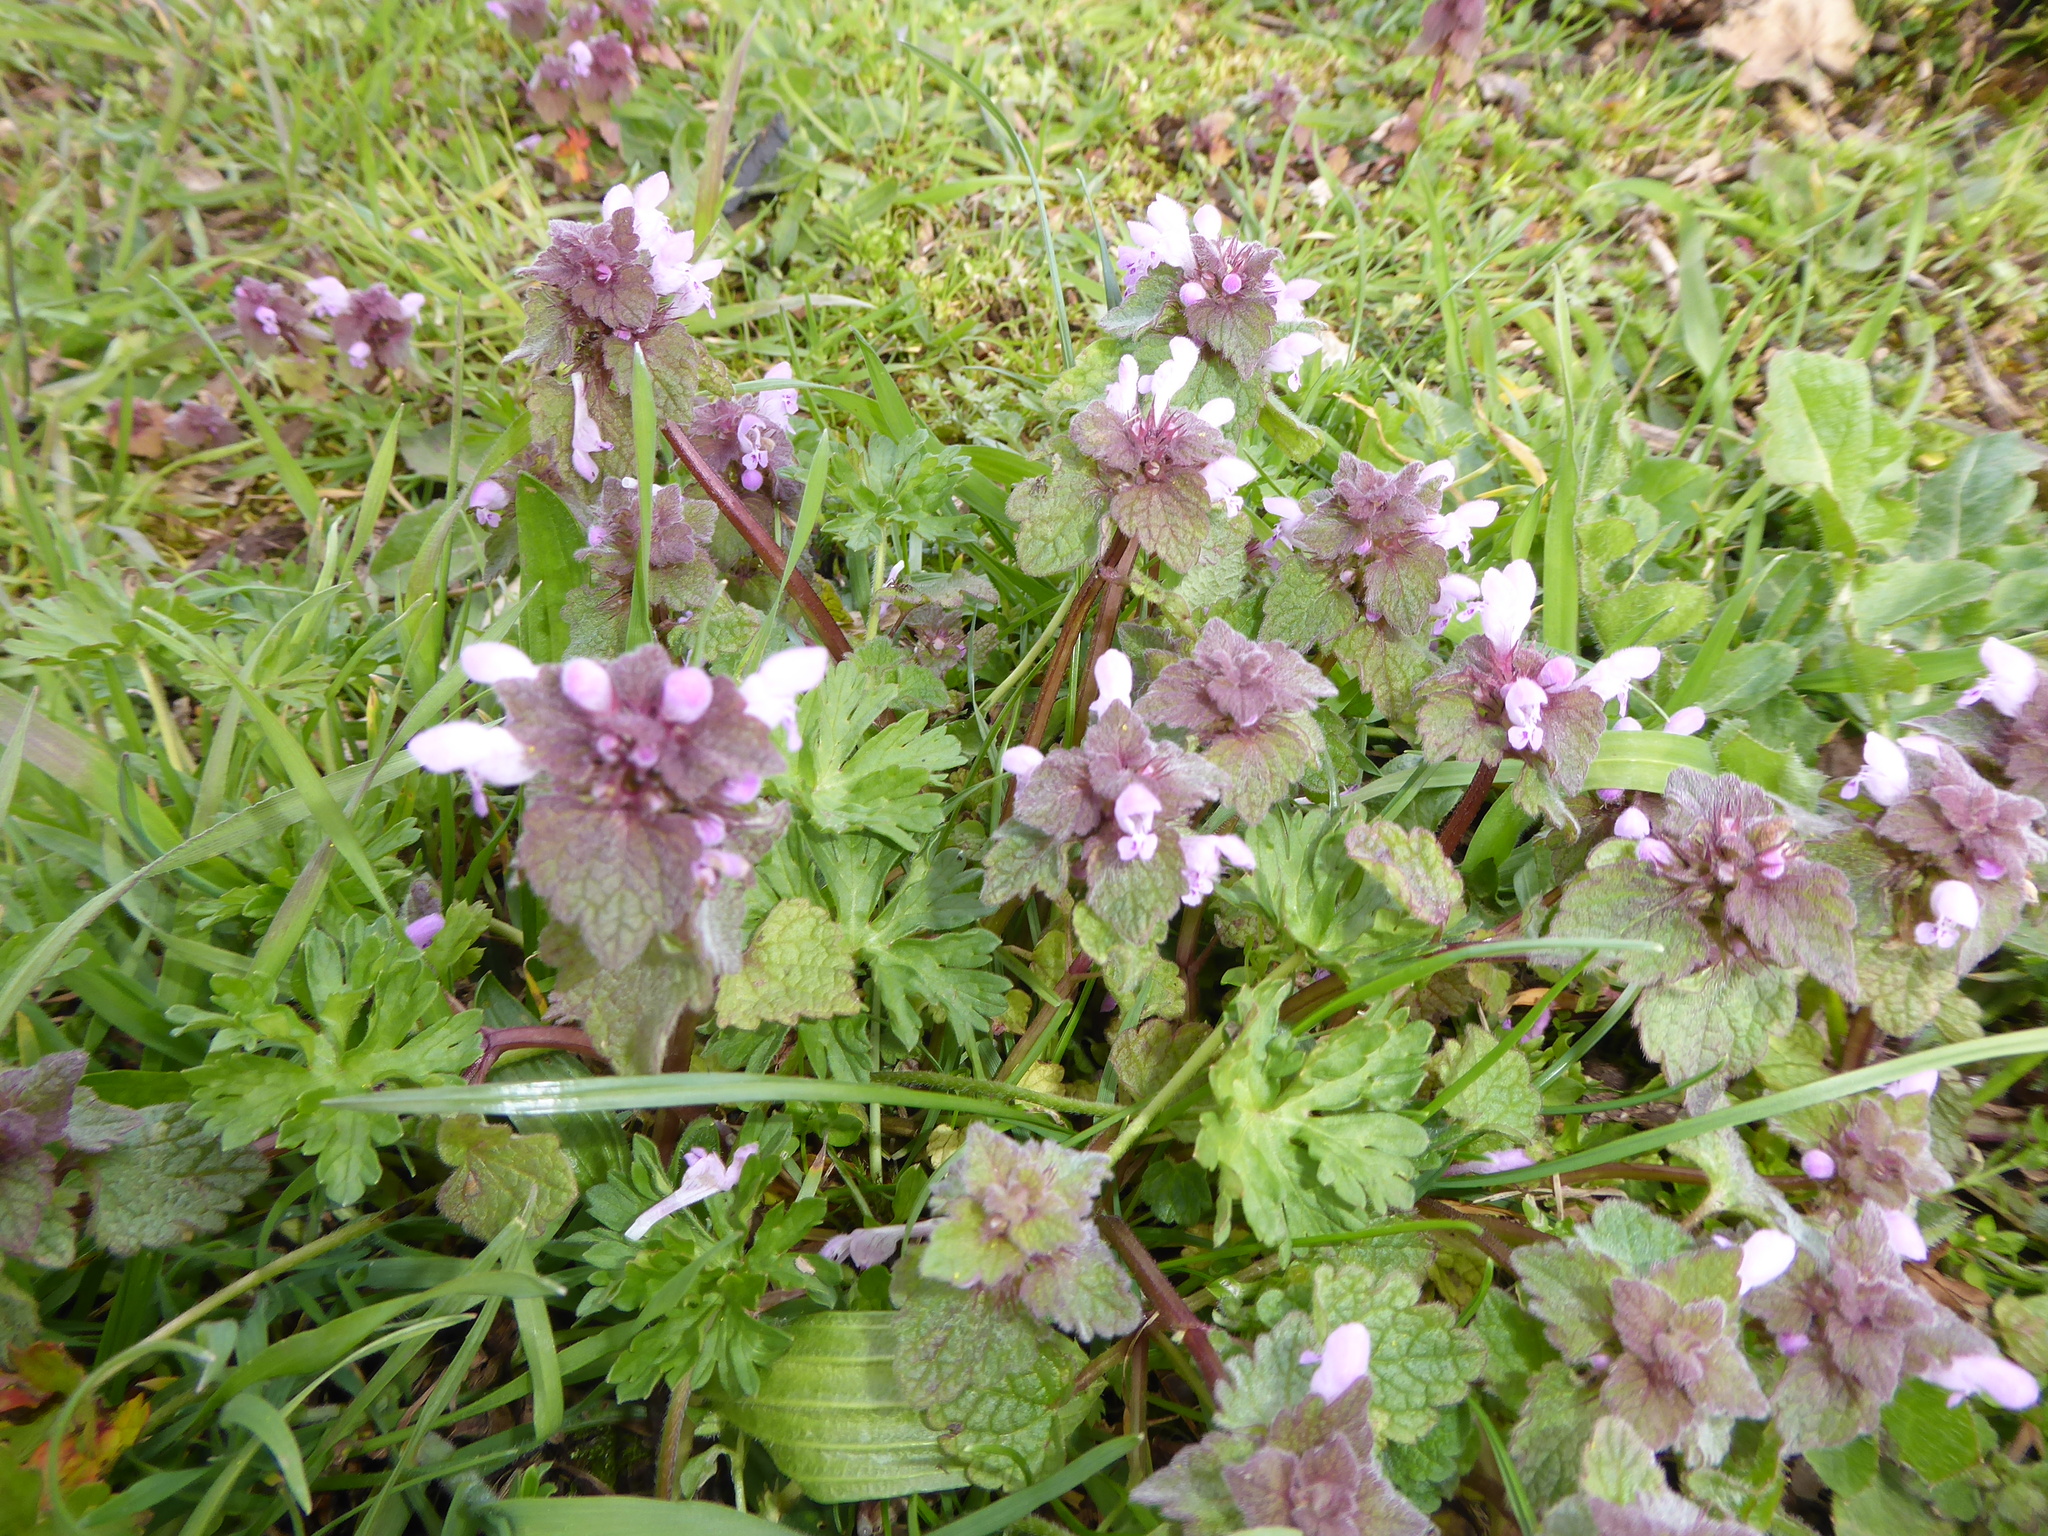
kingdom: Plantae
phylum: Tracheophyta
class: Magnoliopsida
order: Lamiales
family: Lamiaceae
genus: Lamium
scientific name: Lamium purpureum
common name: Red dead-nettle
